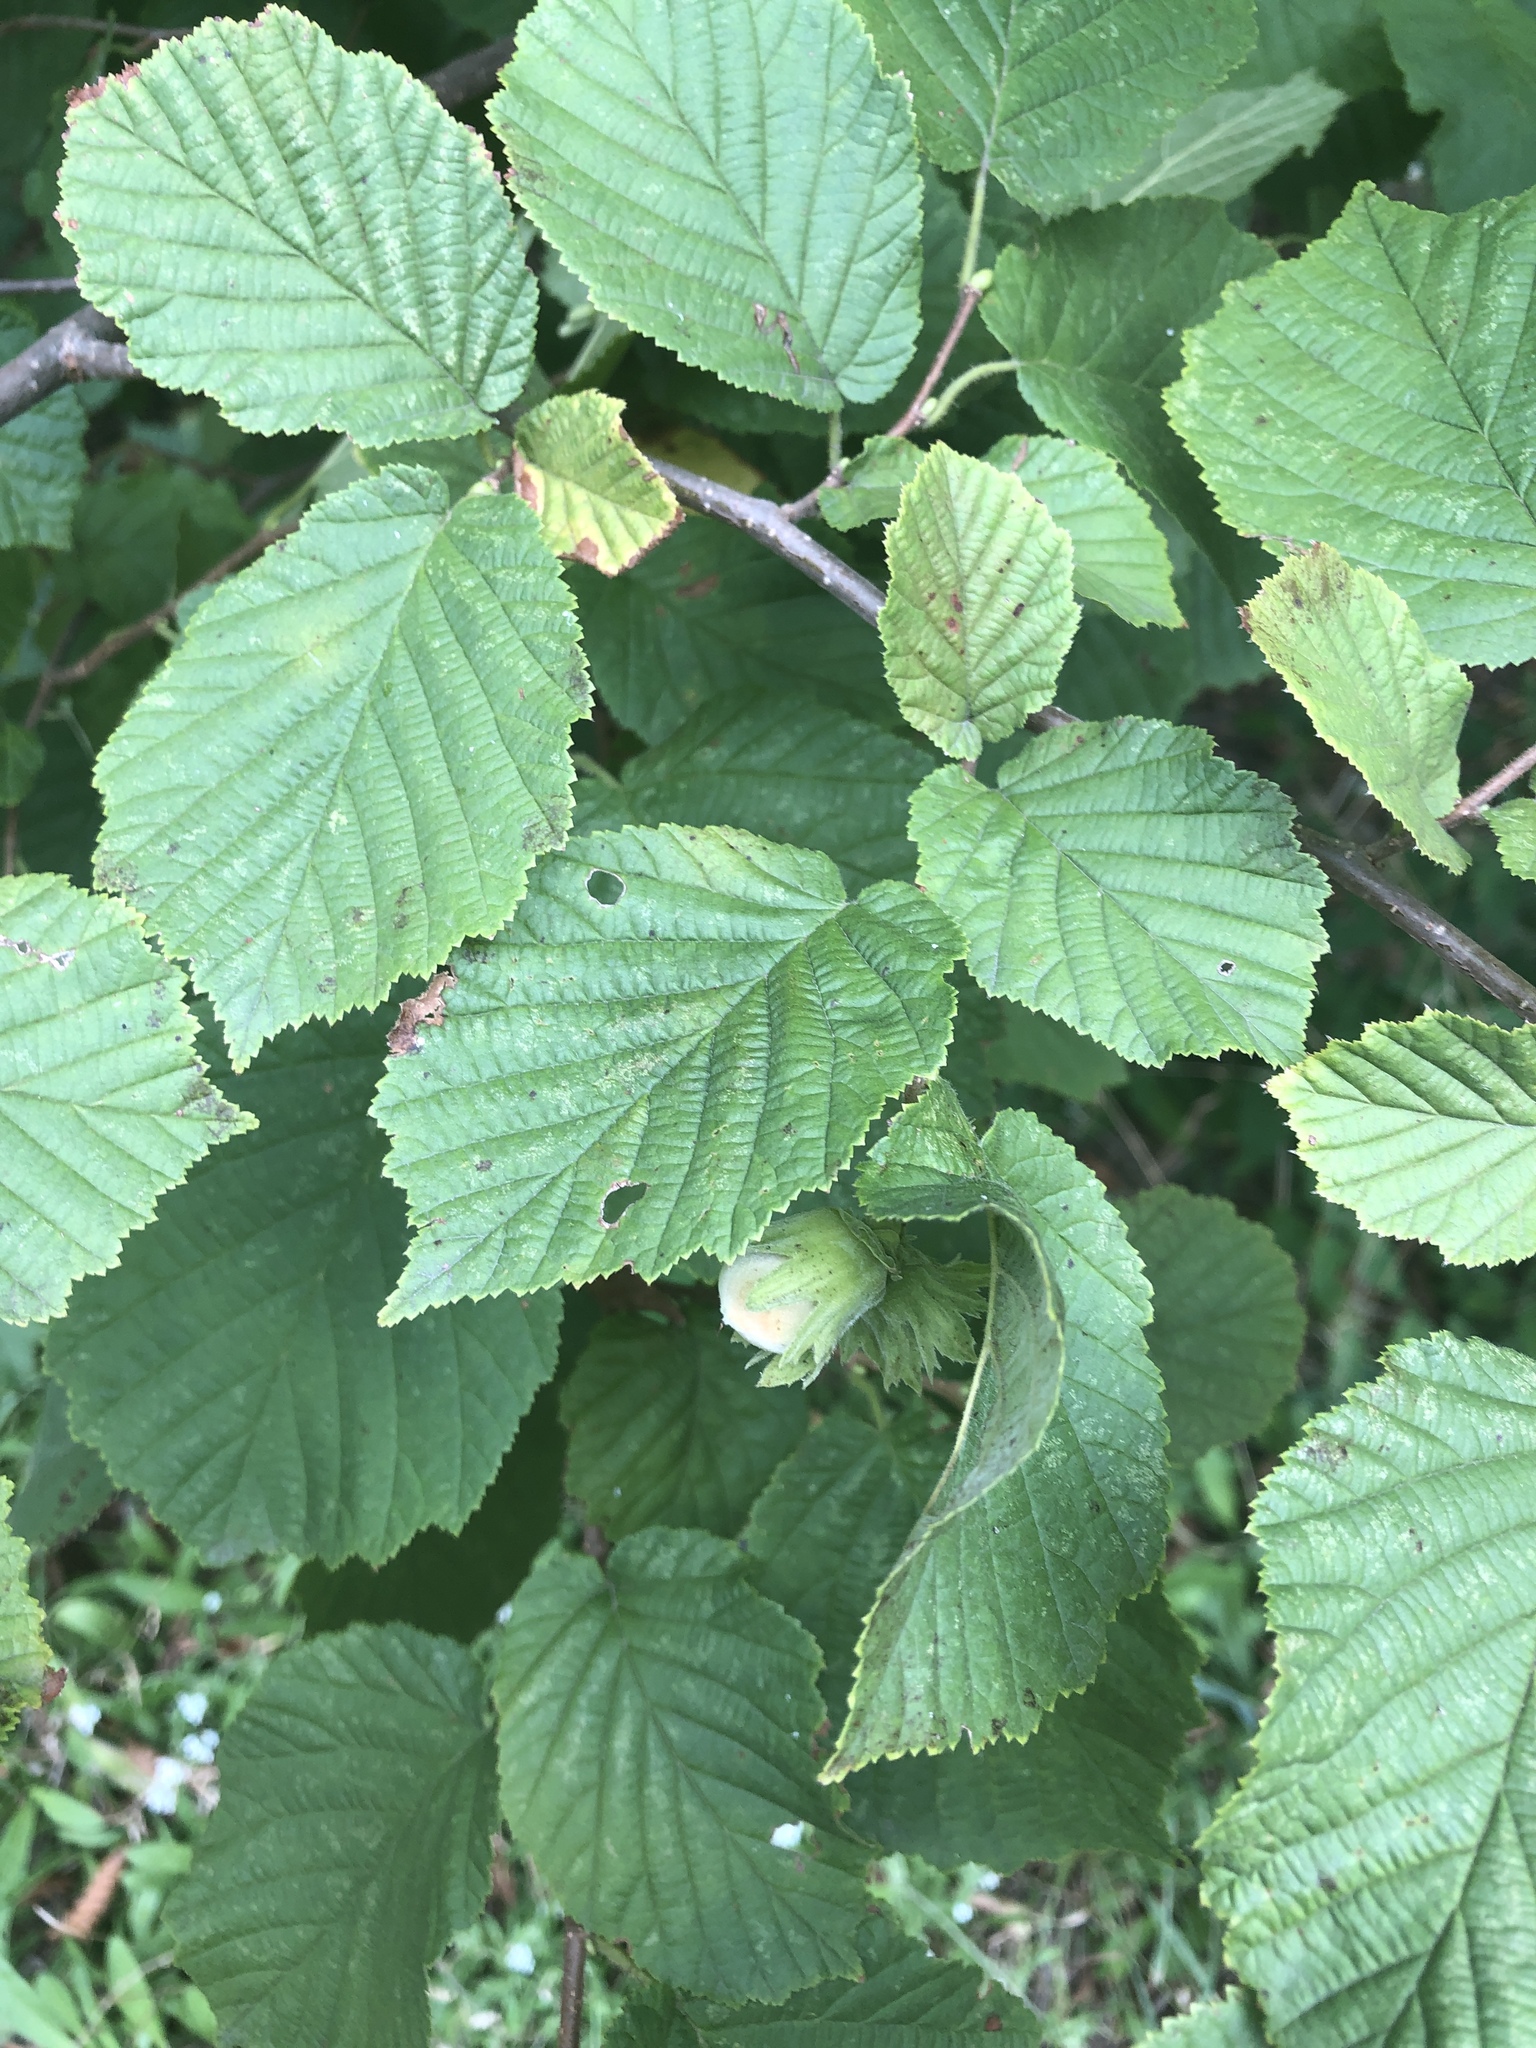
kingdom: Plantae
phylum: Tracheophyta
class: Magnoliopsida
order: Fagales
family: Betulaceae
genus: Corylus
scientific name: Corylus avellana
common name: European hazel
